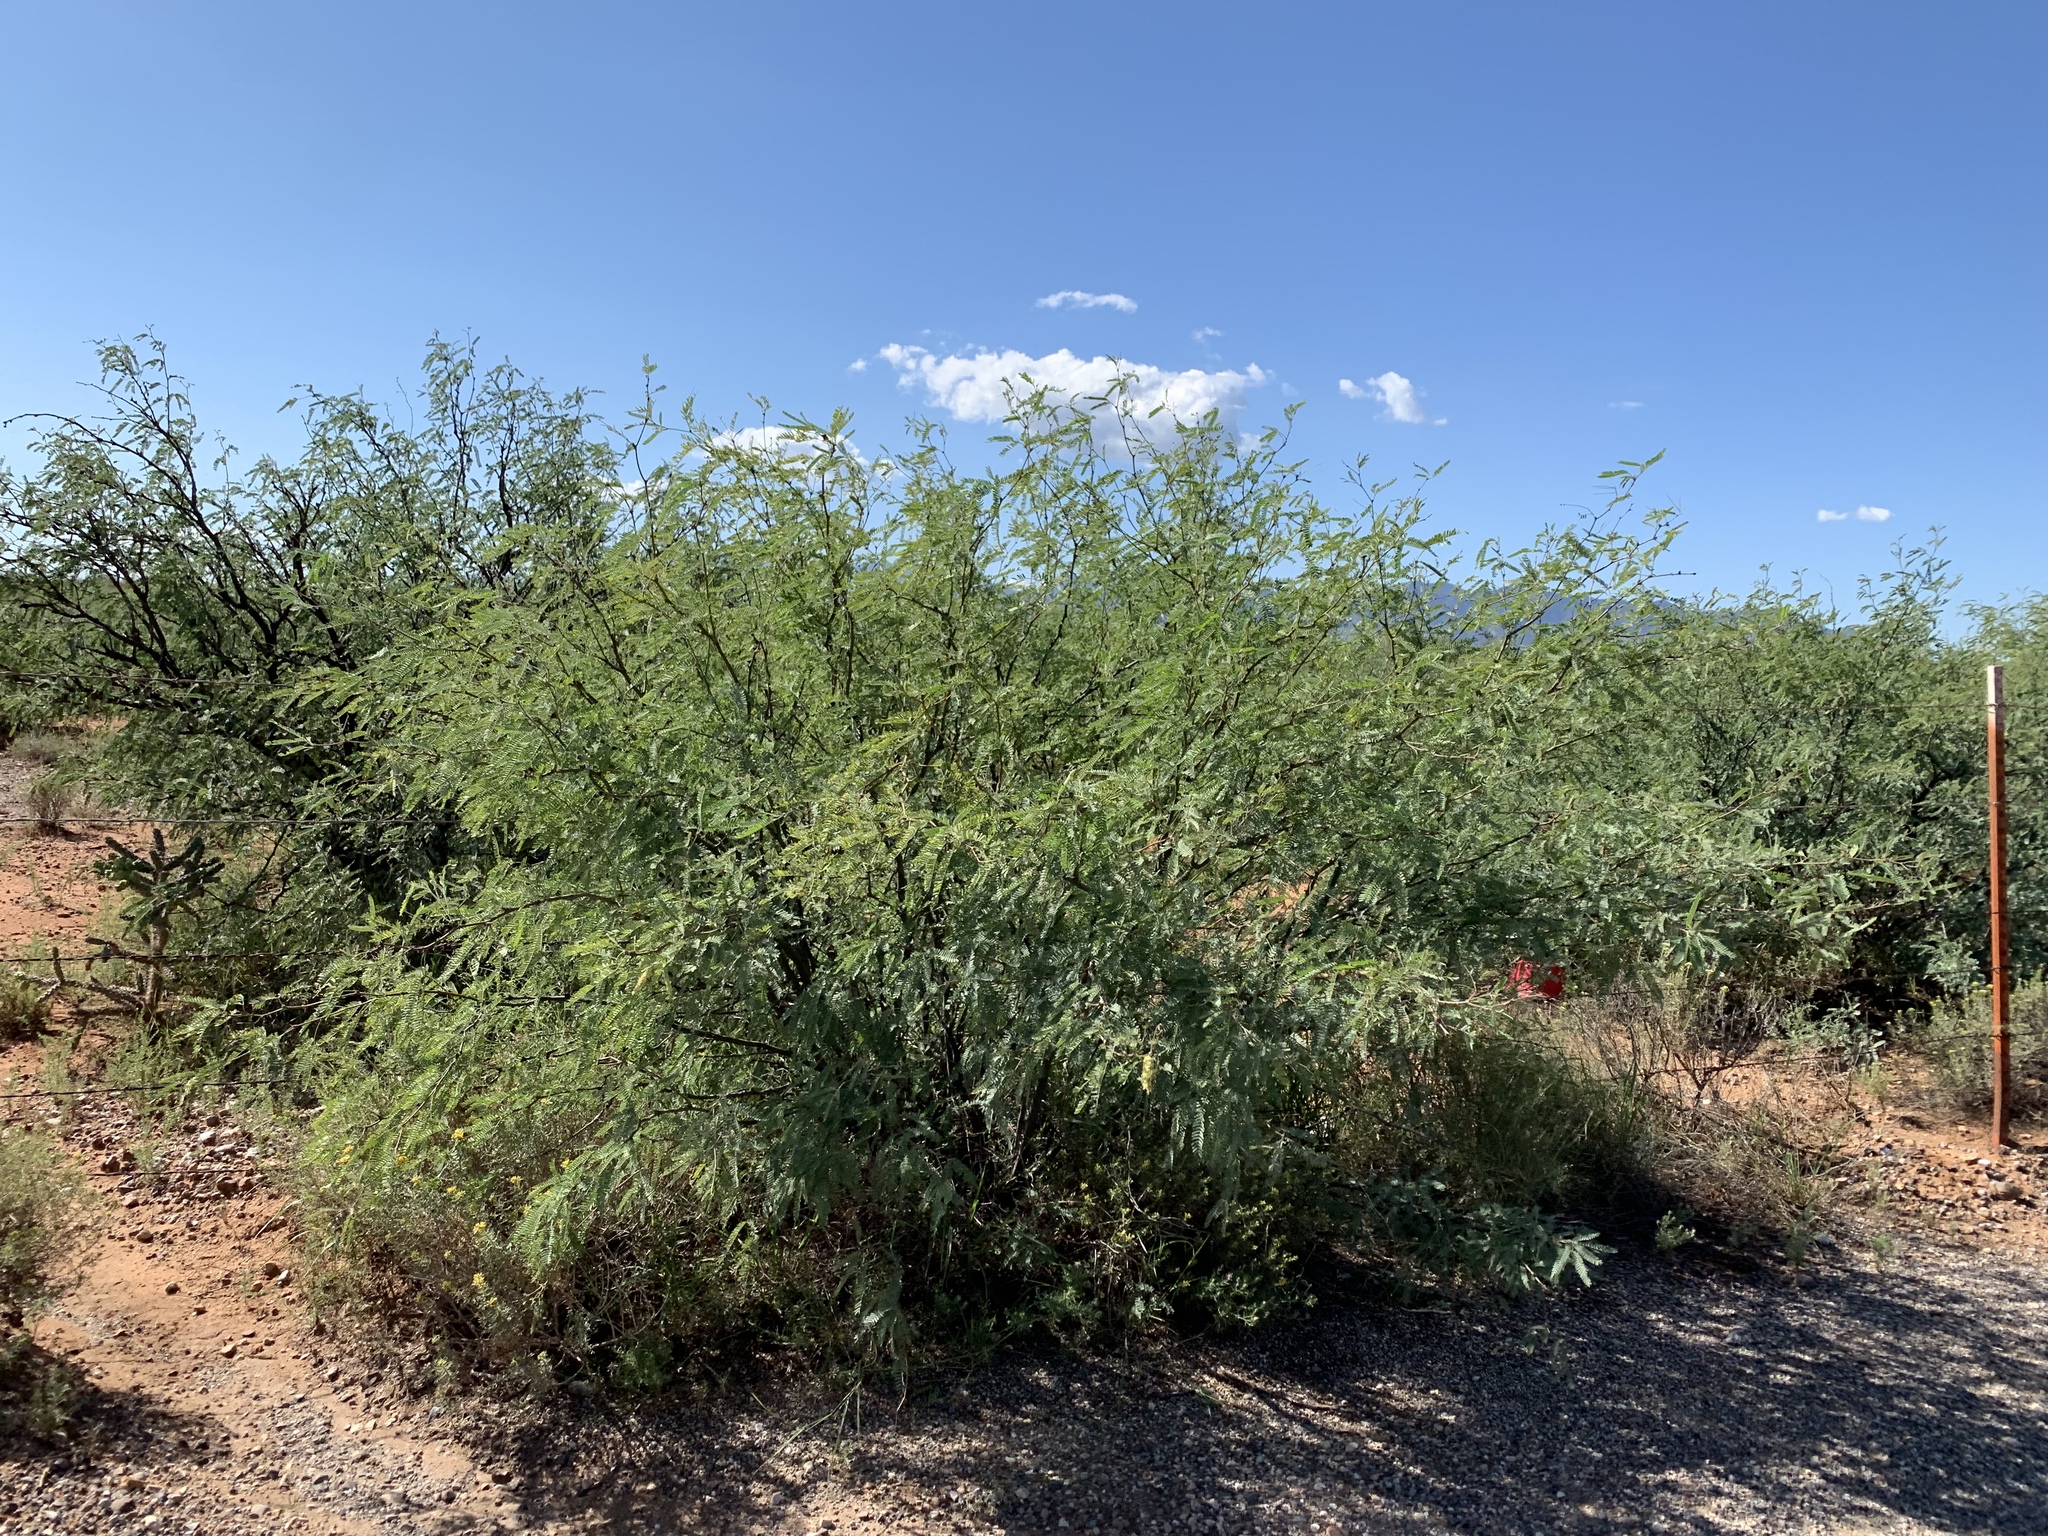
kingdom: Plantae
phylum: Tracheophyta
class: Magnoliopsida
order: Fabales
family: Fabaceae
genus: Prosopis
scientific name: Prosopis velutina
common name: Velvet mesquite
